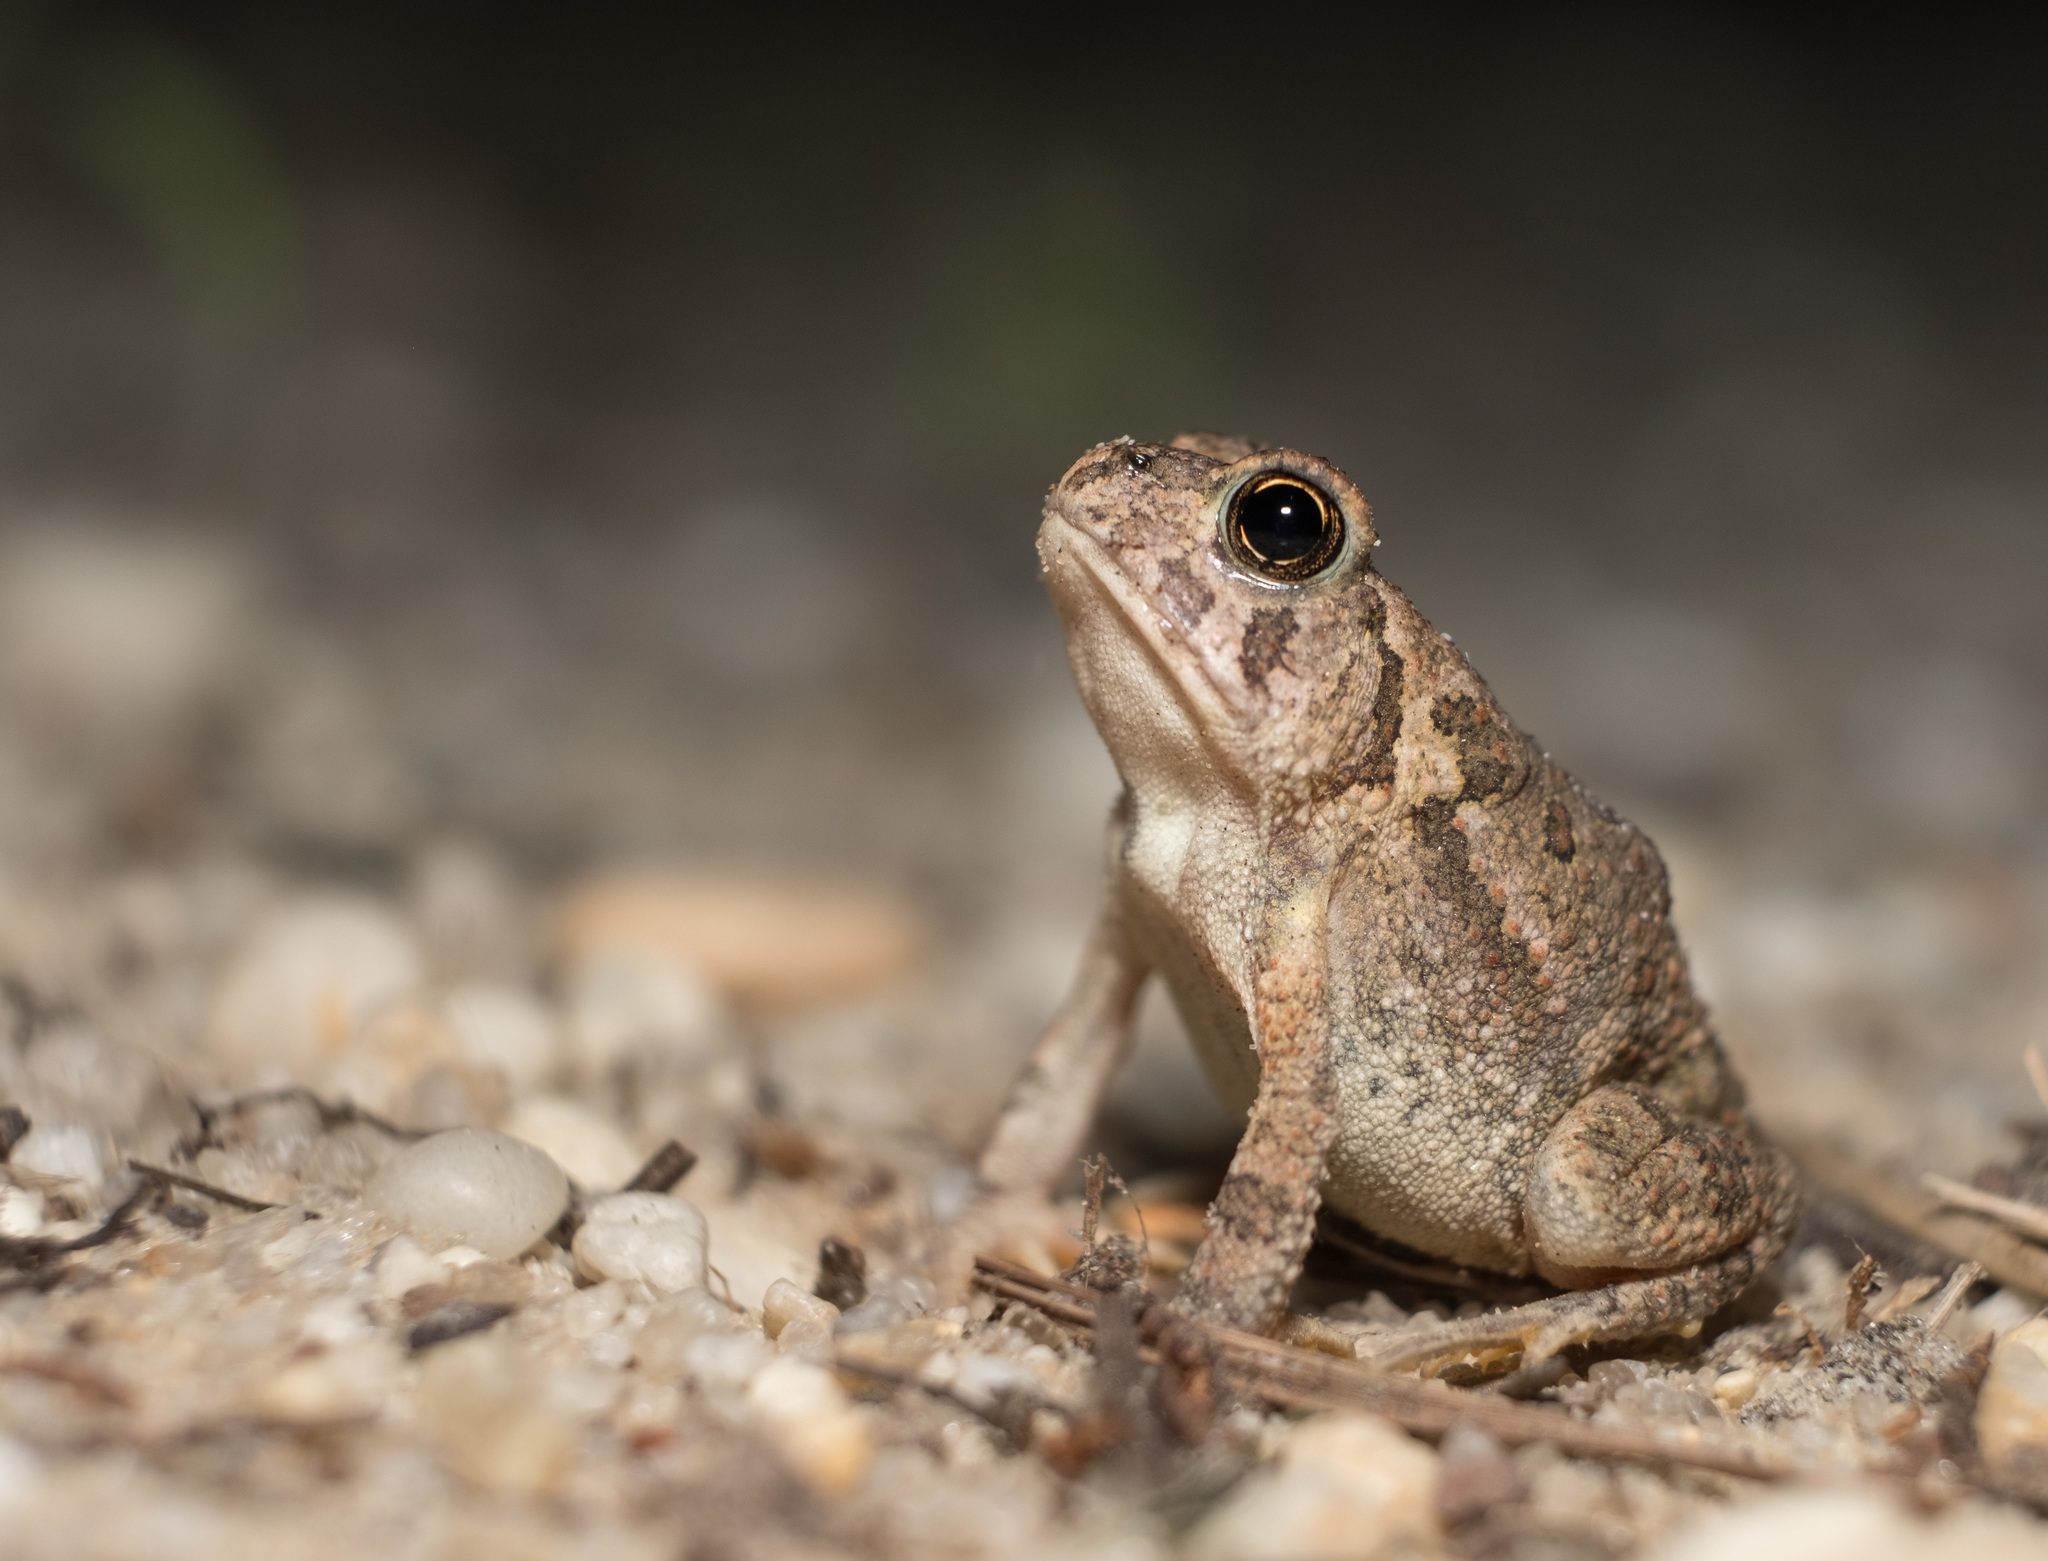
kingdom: Animalia
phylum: Chordata
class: Amphibia
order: Anura
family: Bufonidae
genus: Anaxyrus
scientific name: Anaxyrus fowleri
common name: Fowler's toad
